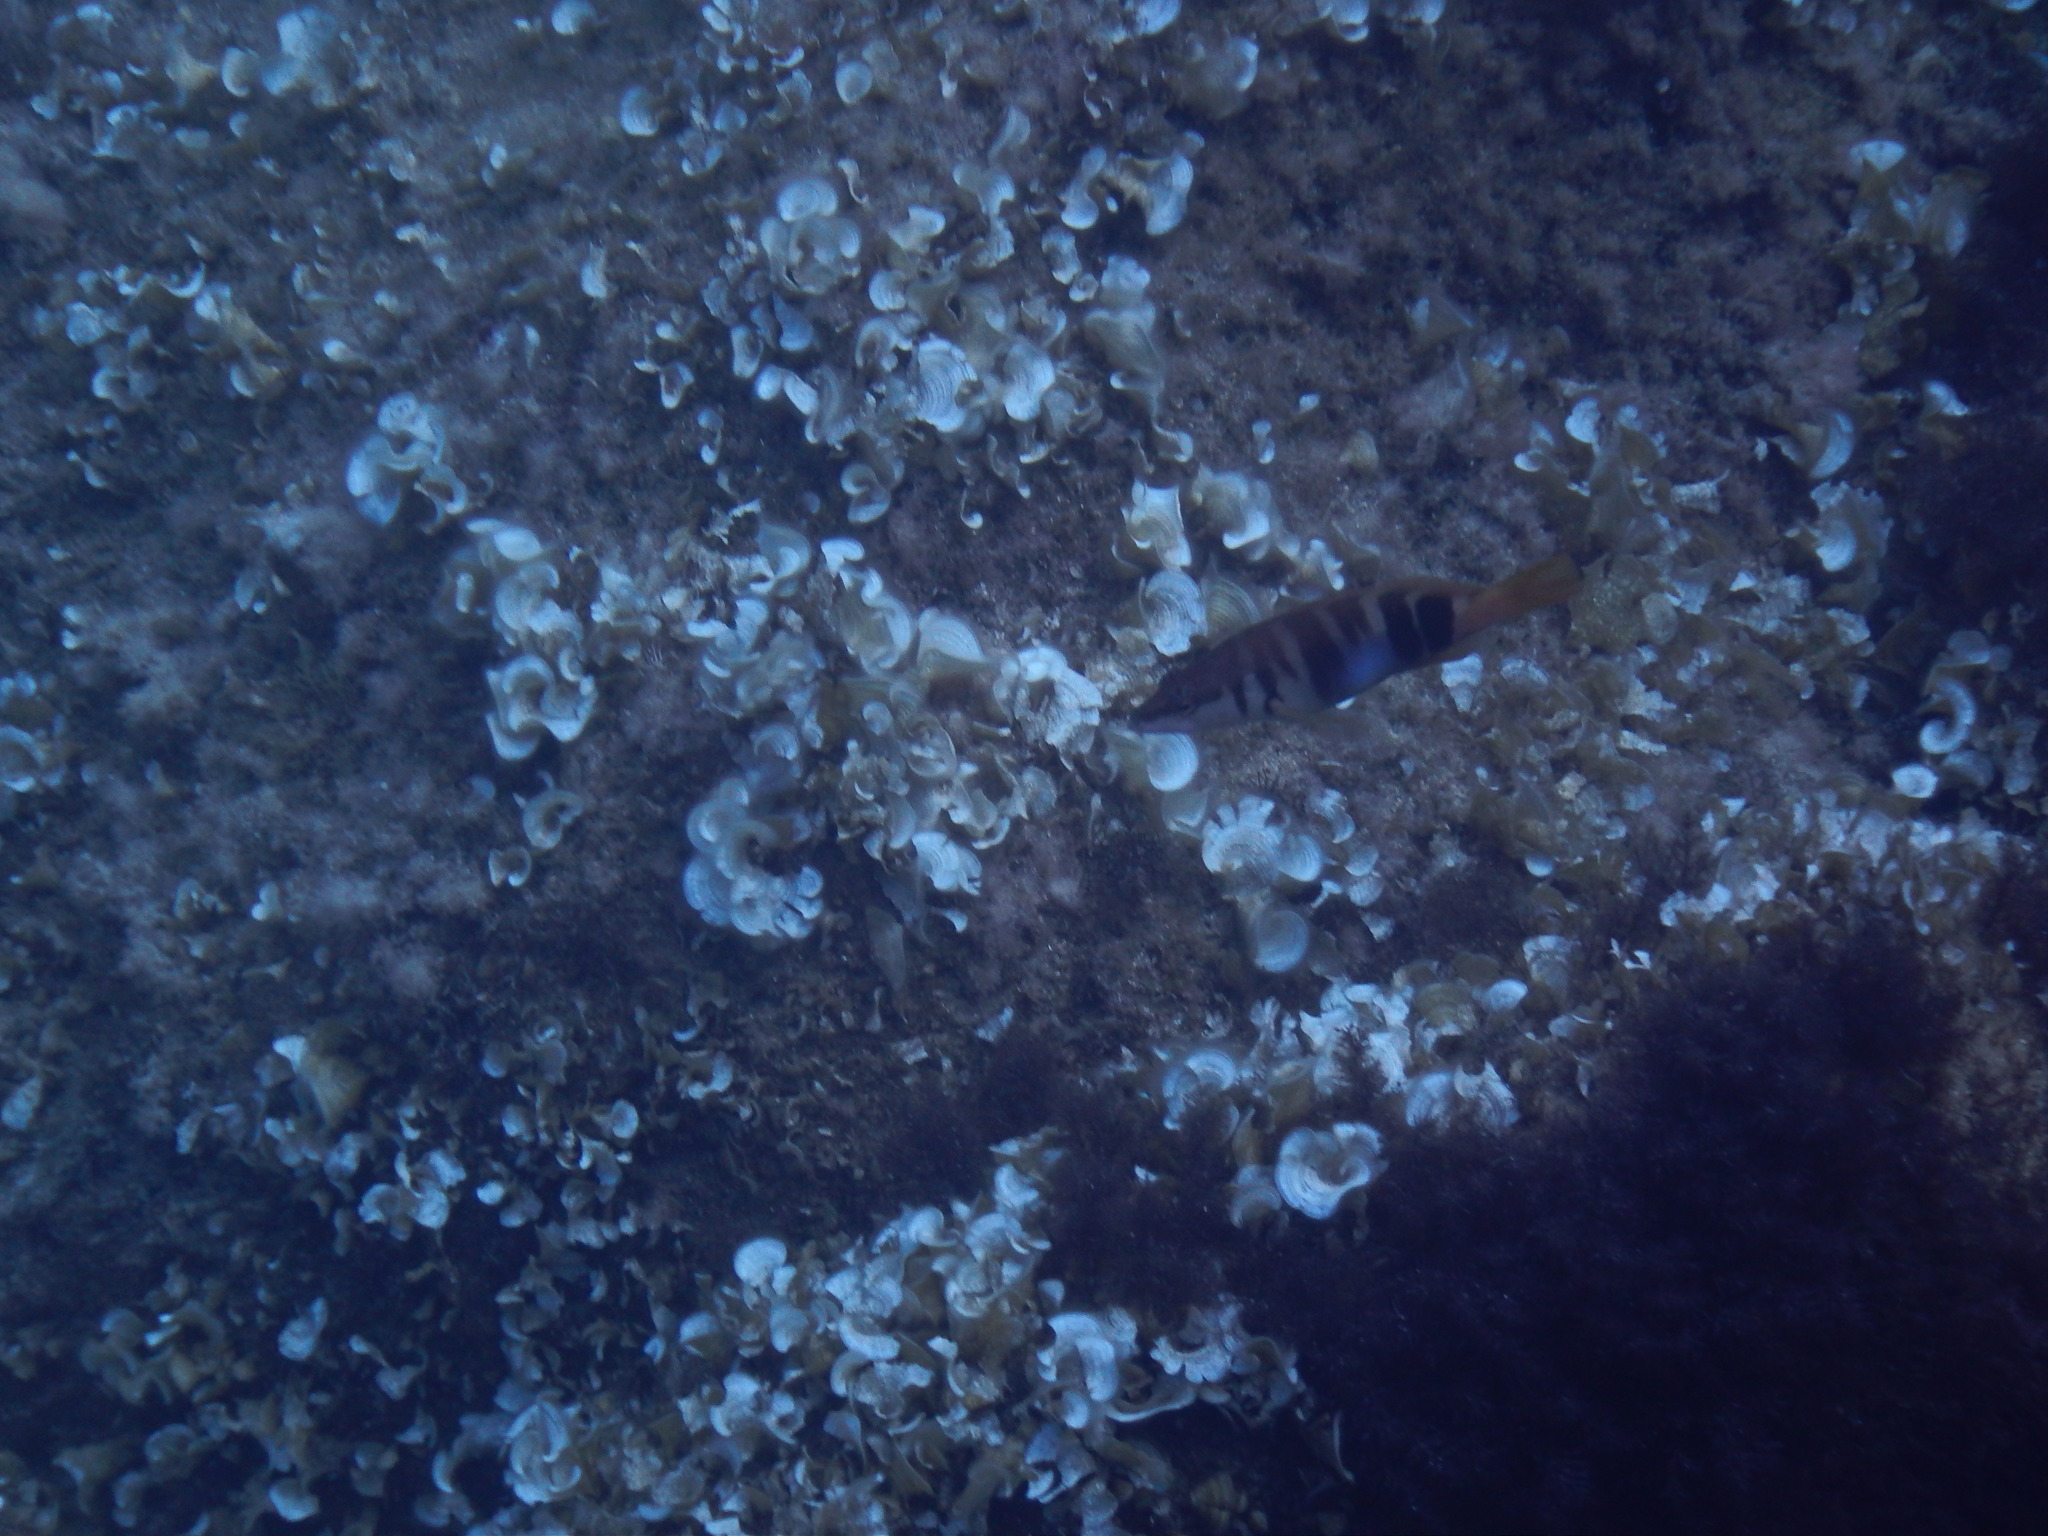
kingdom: Animalia
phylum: Chordata
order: Perciformes
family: Serranidae
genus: Serranus
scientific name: Serranus scriba
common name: Painted comber
